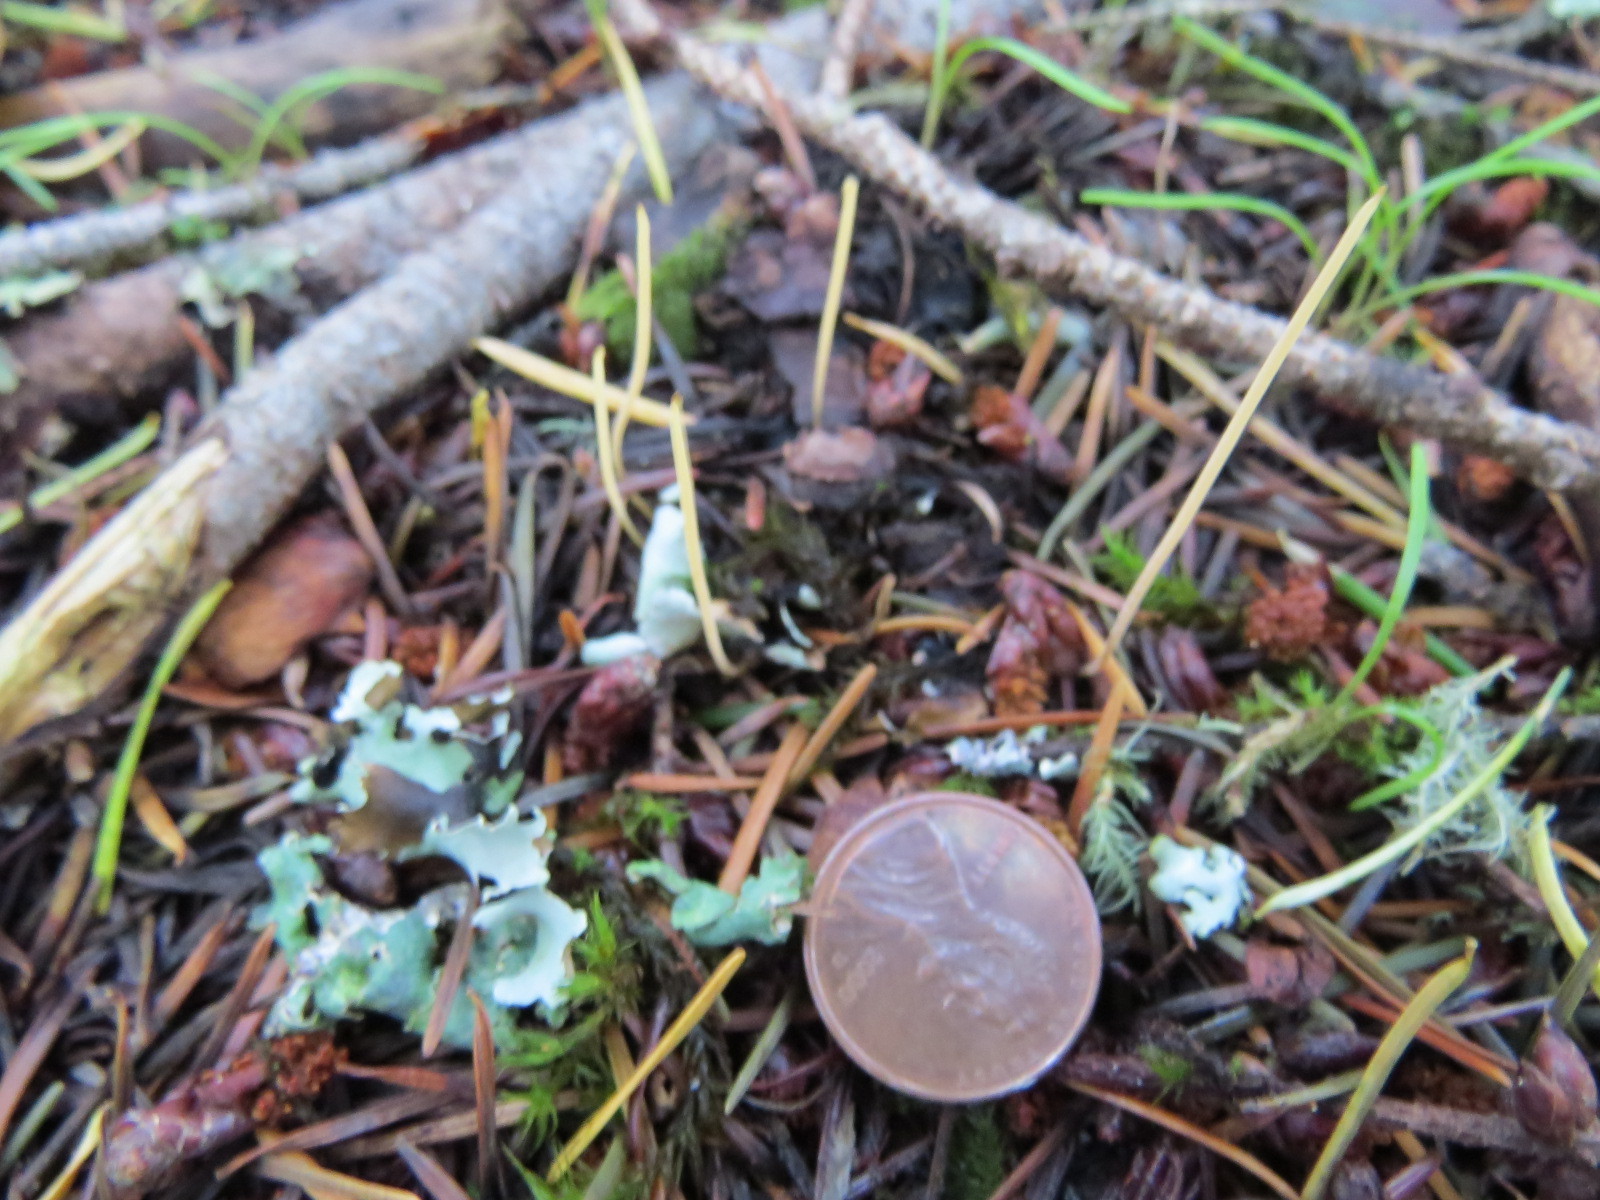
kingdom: Fungi
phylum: Basidiomycota
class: Agaricomycetes
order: Agaricales
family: Typhulaceae
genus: Typhula
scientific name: Typhula juncea
